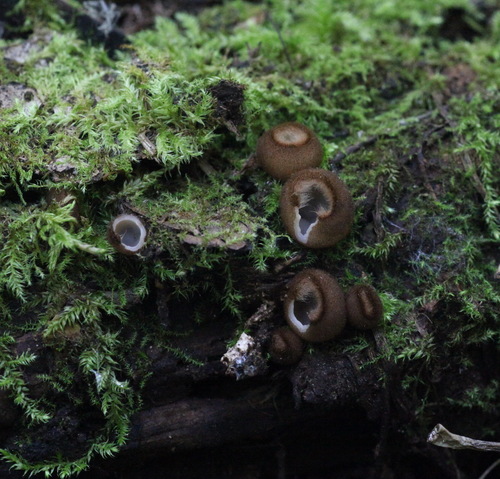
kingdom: Fungi
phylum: Ascomycota
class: Pezizomycetes
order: Pezizales
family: Pyronemataceae
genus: Humaria
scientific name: Humaria hemisphaerica
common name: Glazed cup
